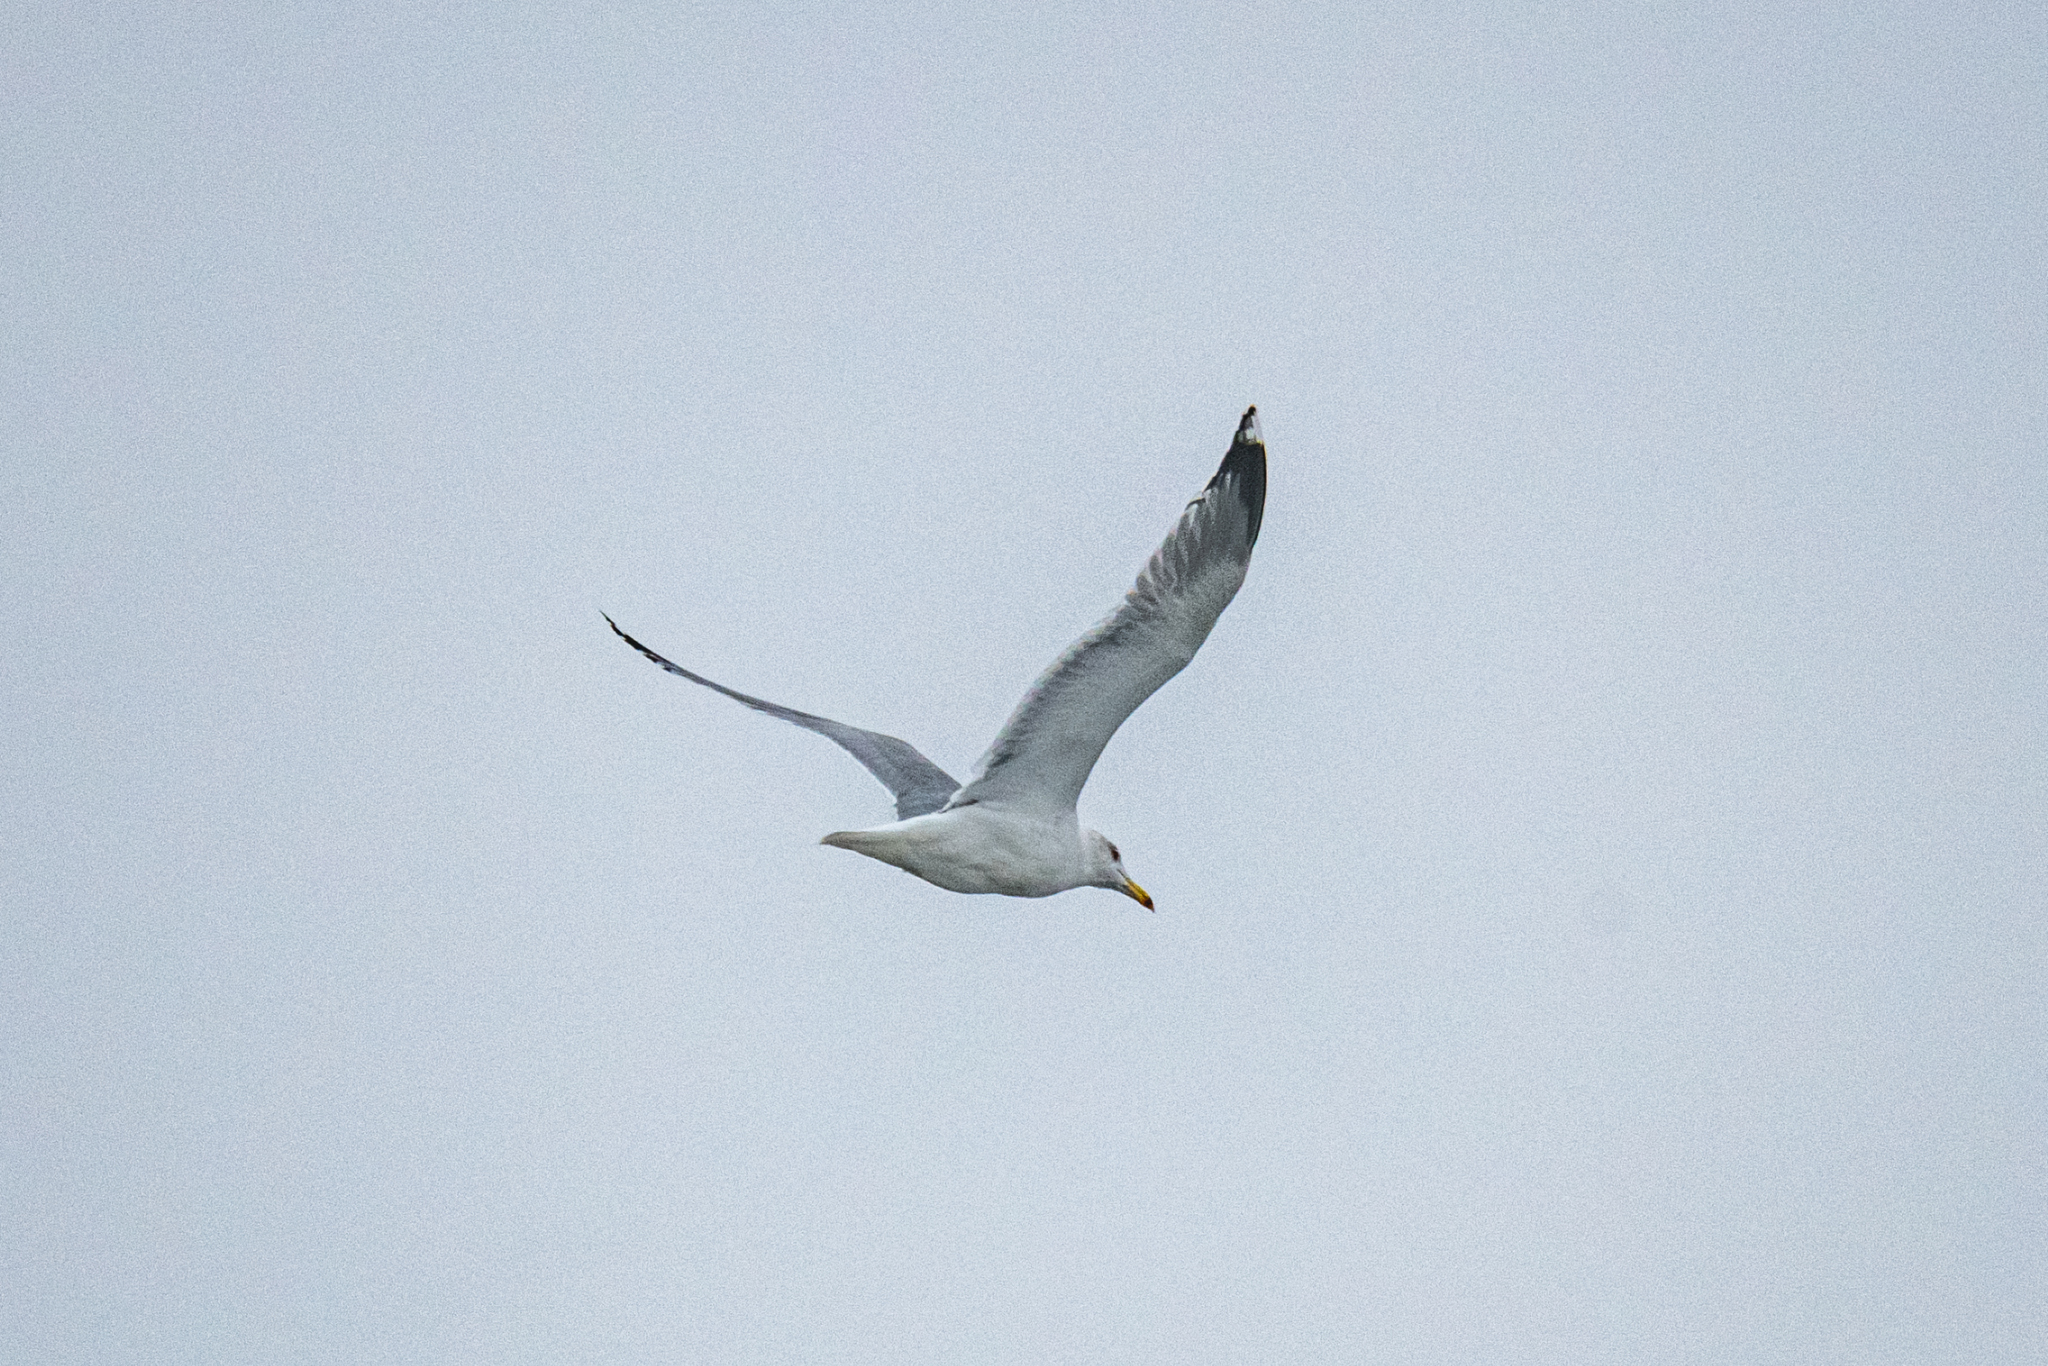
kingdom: Animalia
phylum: Chordata
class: Aves
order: Charadriiformes
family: Laridae
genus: Larus
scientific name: Larus argentatus
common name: Herring gull
